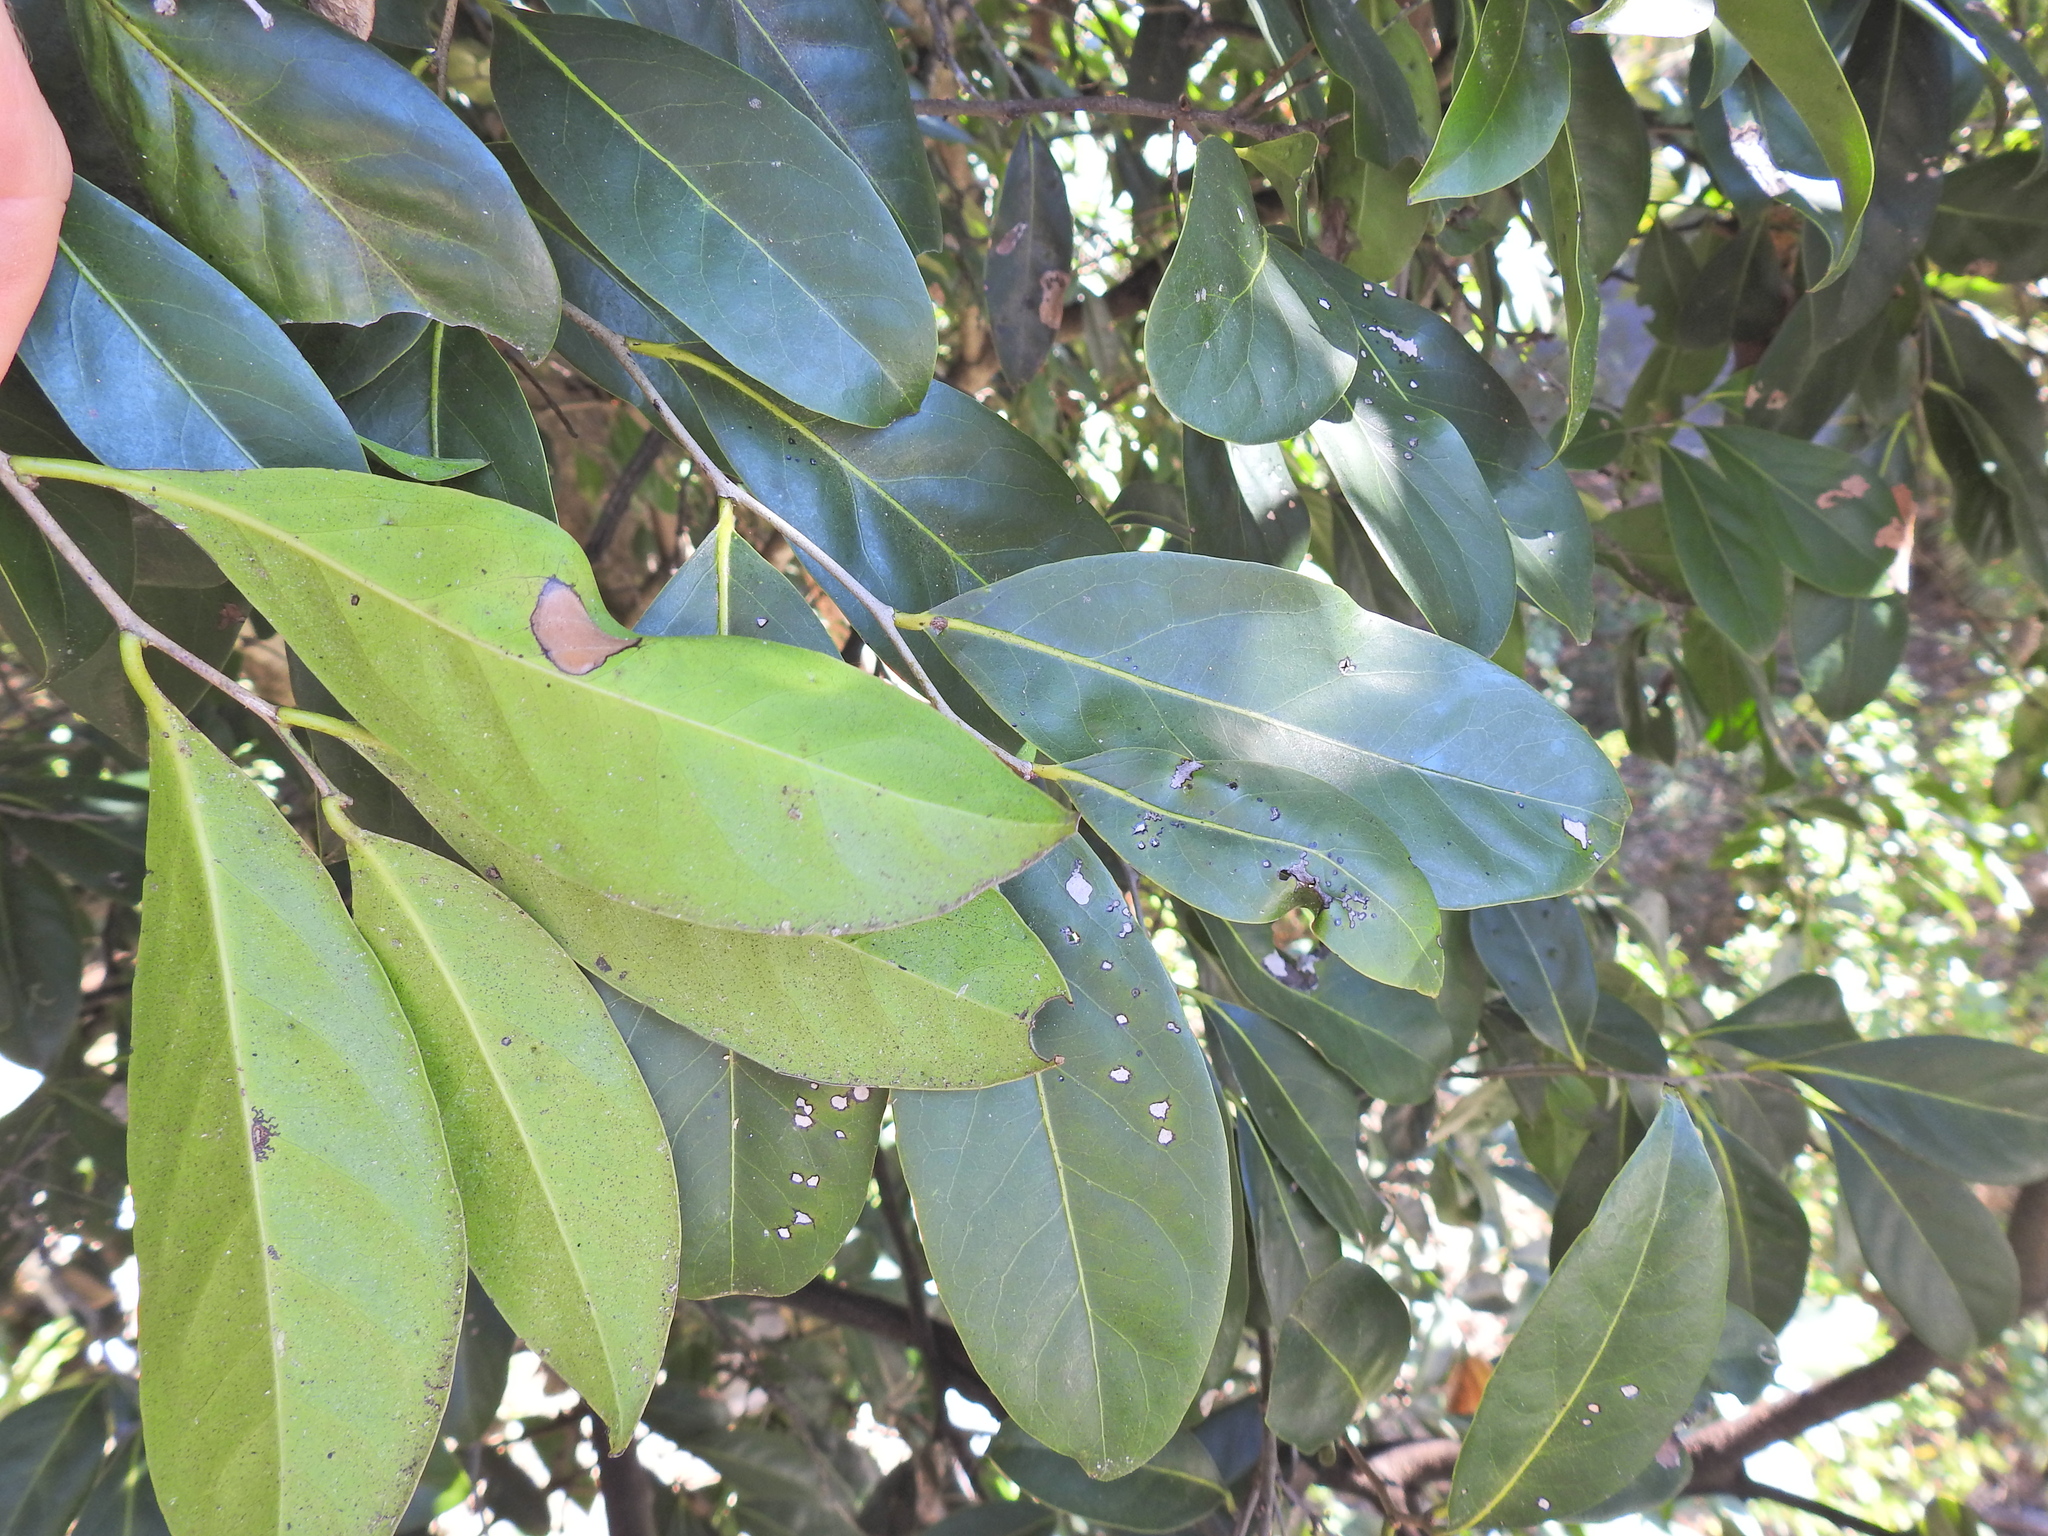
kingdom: Plantae
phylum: Tracheophyta
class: Magnoliopsida
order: Ericales
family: Ebenaceae
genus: Diospyros
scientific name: Diospyros fasciculosa
